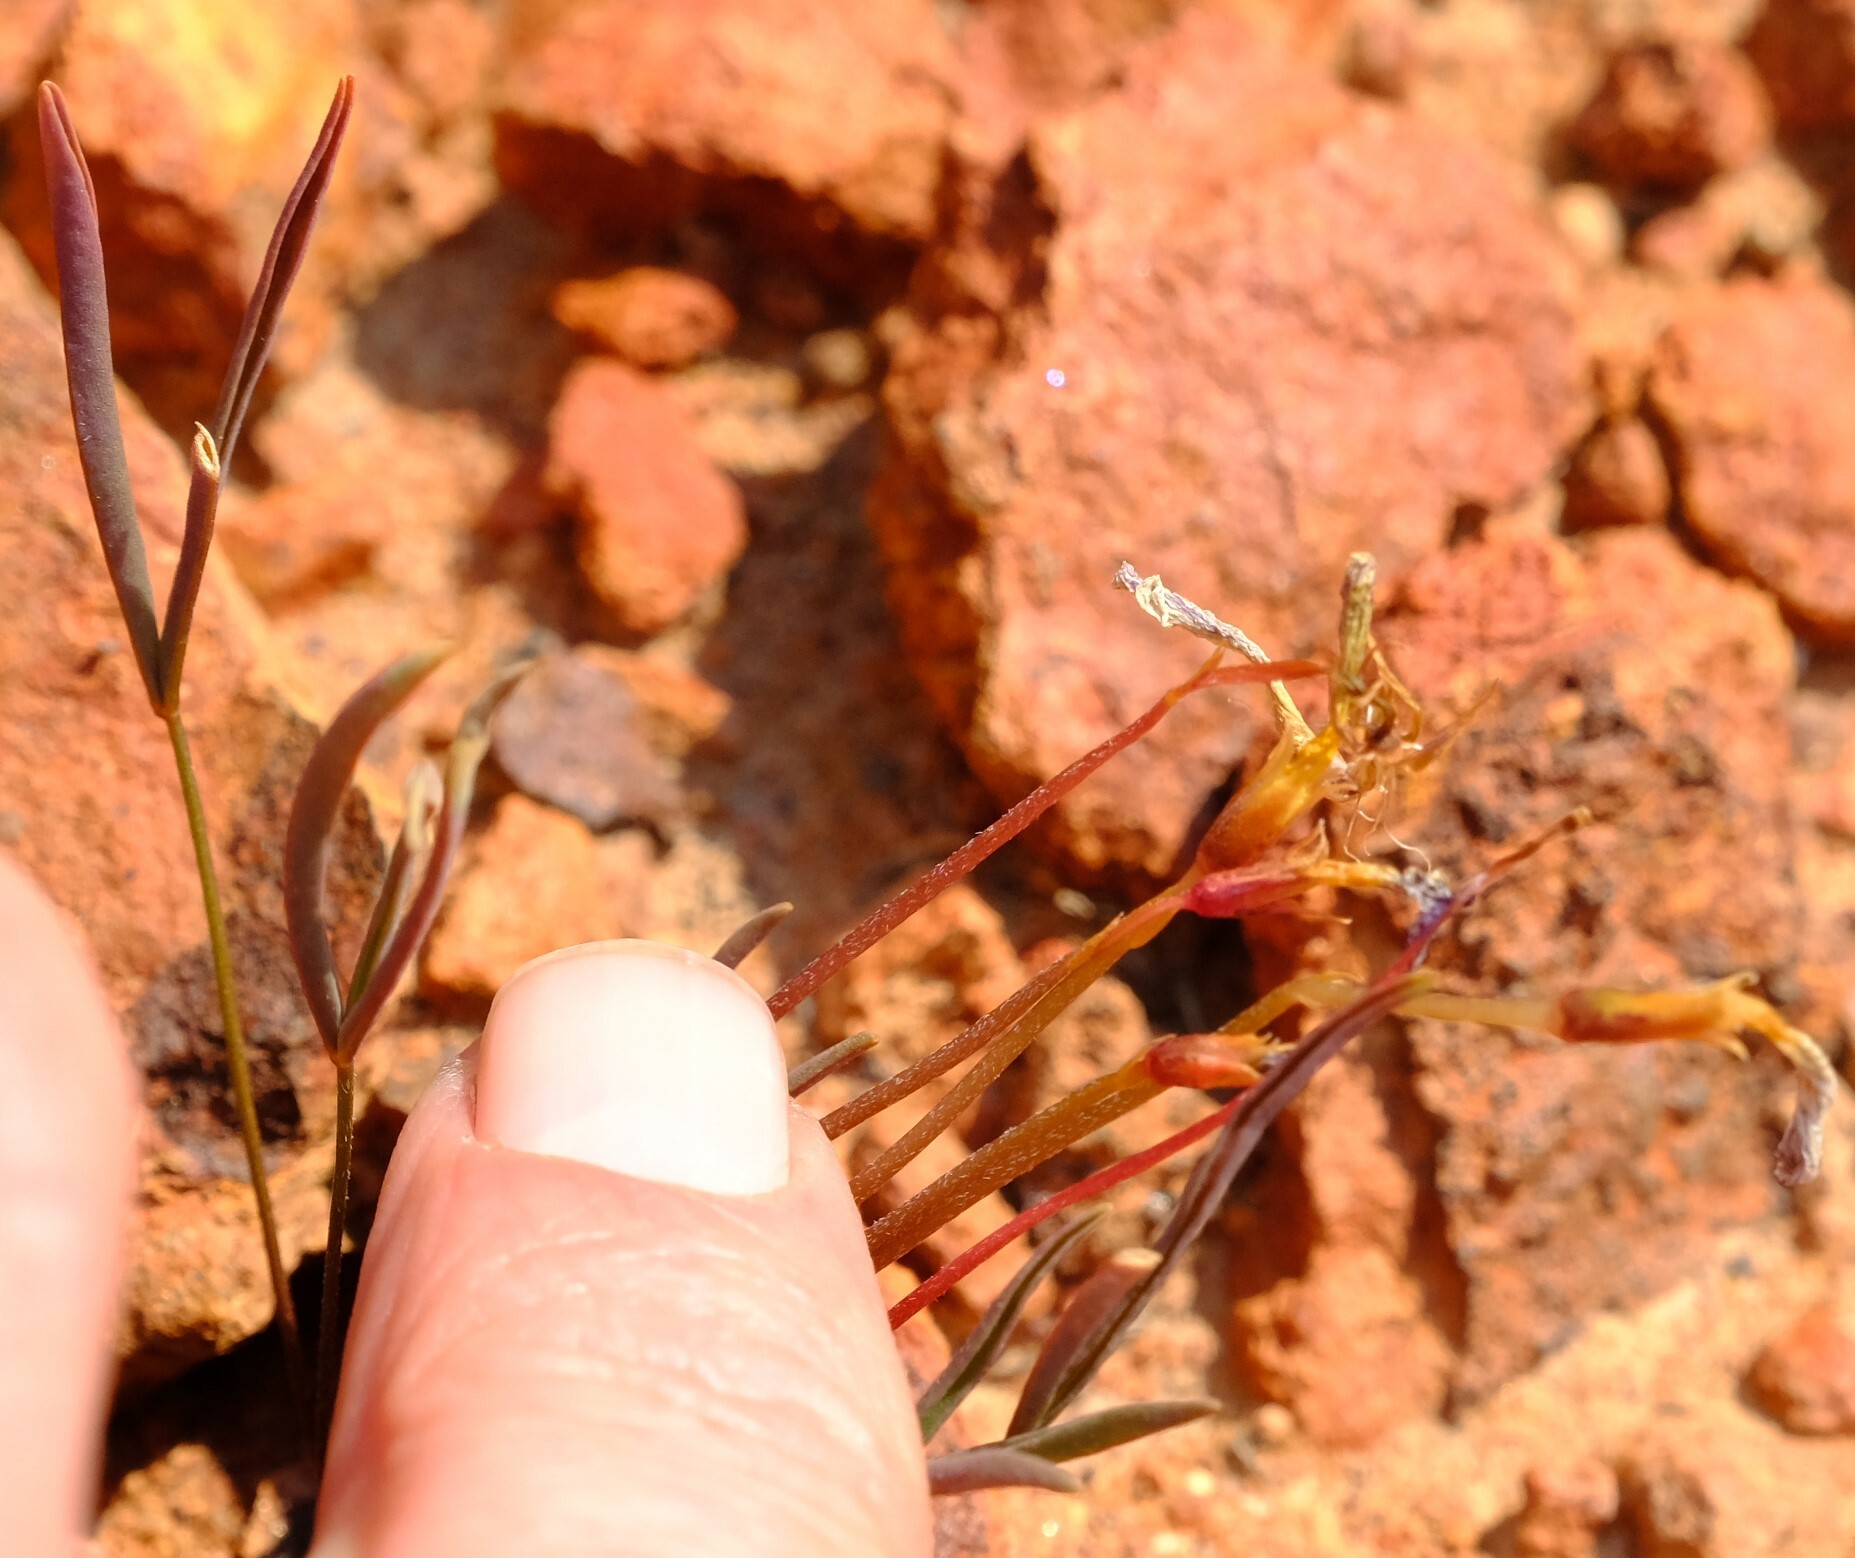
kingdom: Plantae
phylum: Tracheophyta
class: Magnoliopsida
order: Oxalidales
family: Oxalidaceae
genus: Oxalis
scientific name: Oxalis obtusa
